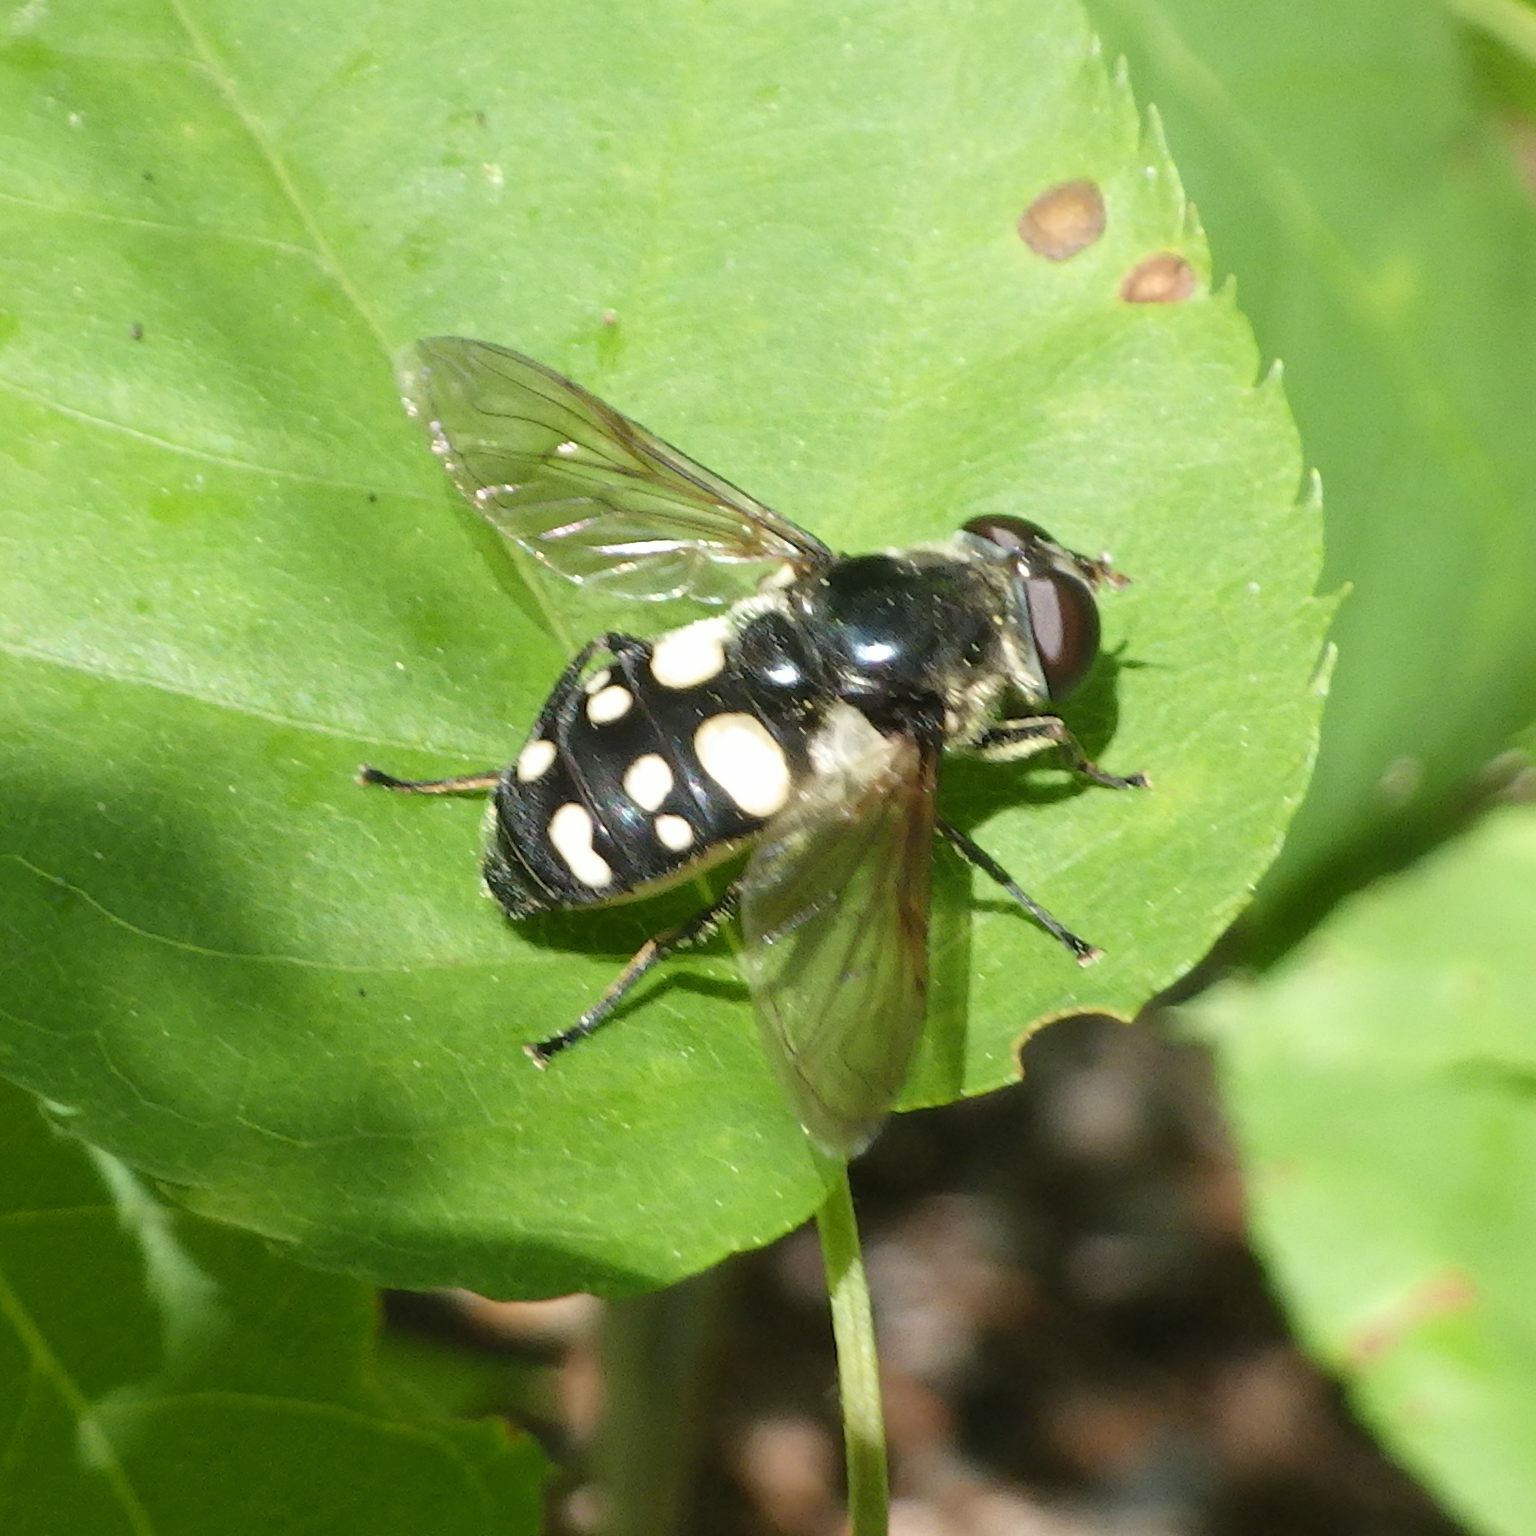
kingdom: Animalia
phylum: Arthropoda
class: Insecta
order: Diptera
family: Syrphidae
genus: Sericomyia
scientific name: Sericomyia lata
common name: White-spotted pond fly
